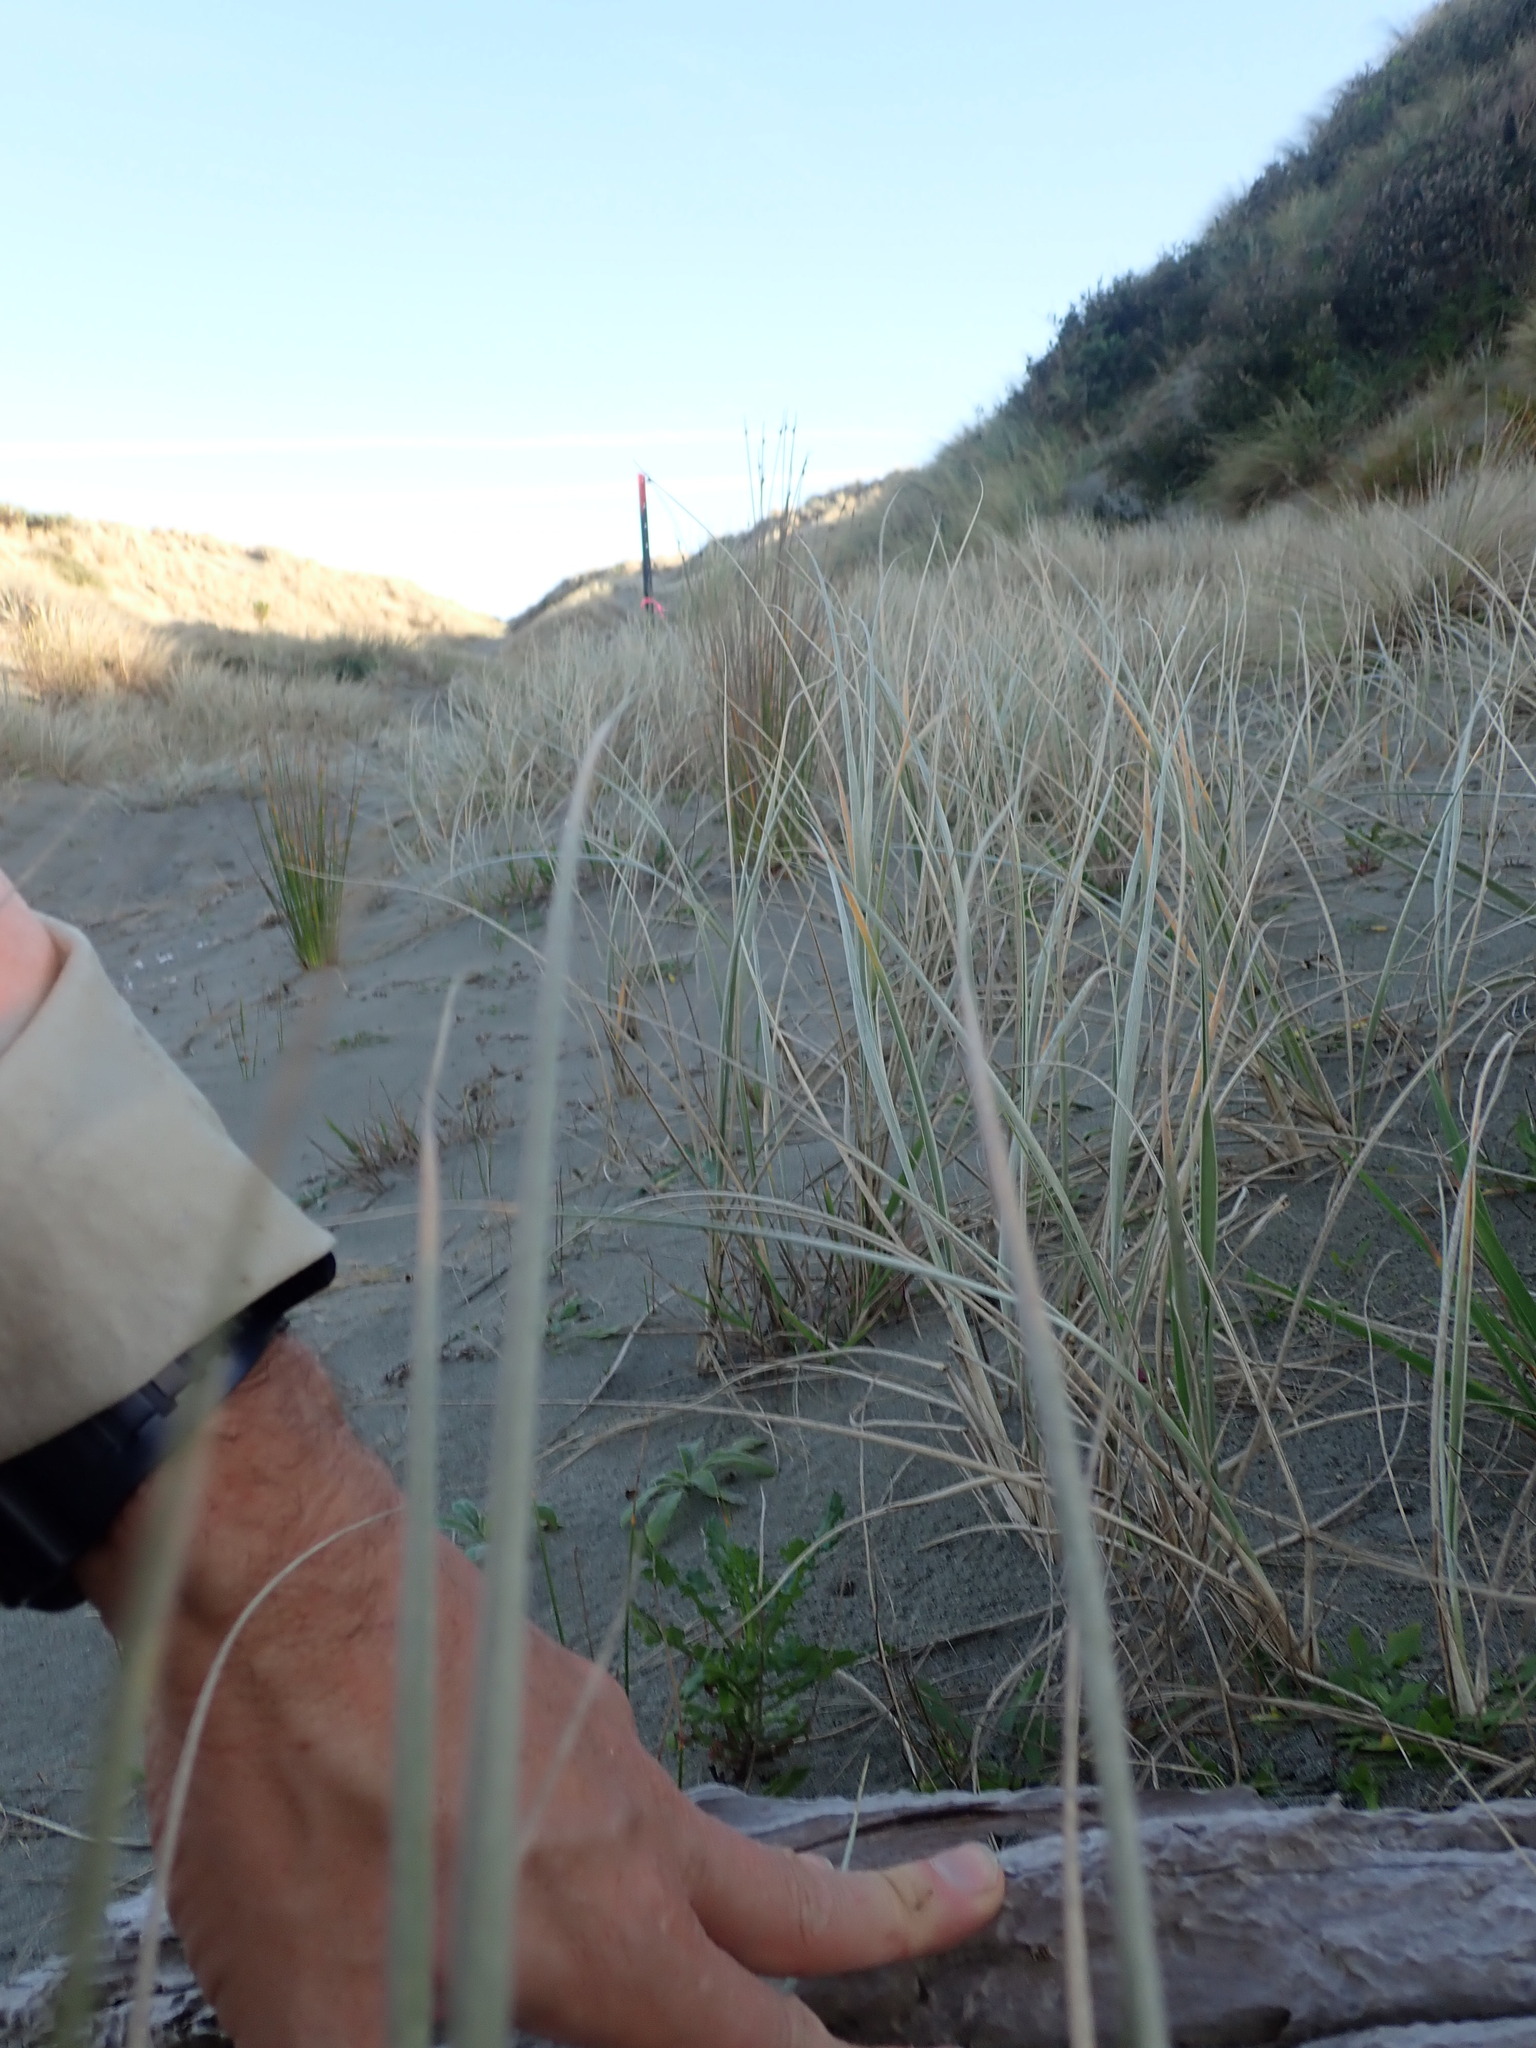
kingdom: Animalia
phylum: Arthropoda
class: Arachnida
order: Araneae
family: Stiphidiidae
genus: Stiphidion
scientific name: Stiphidion facetum
